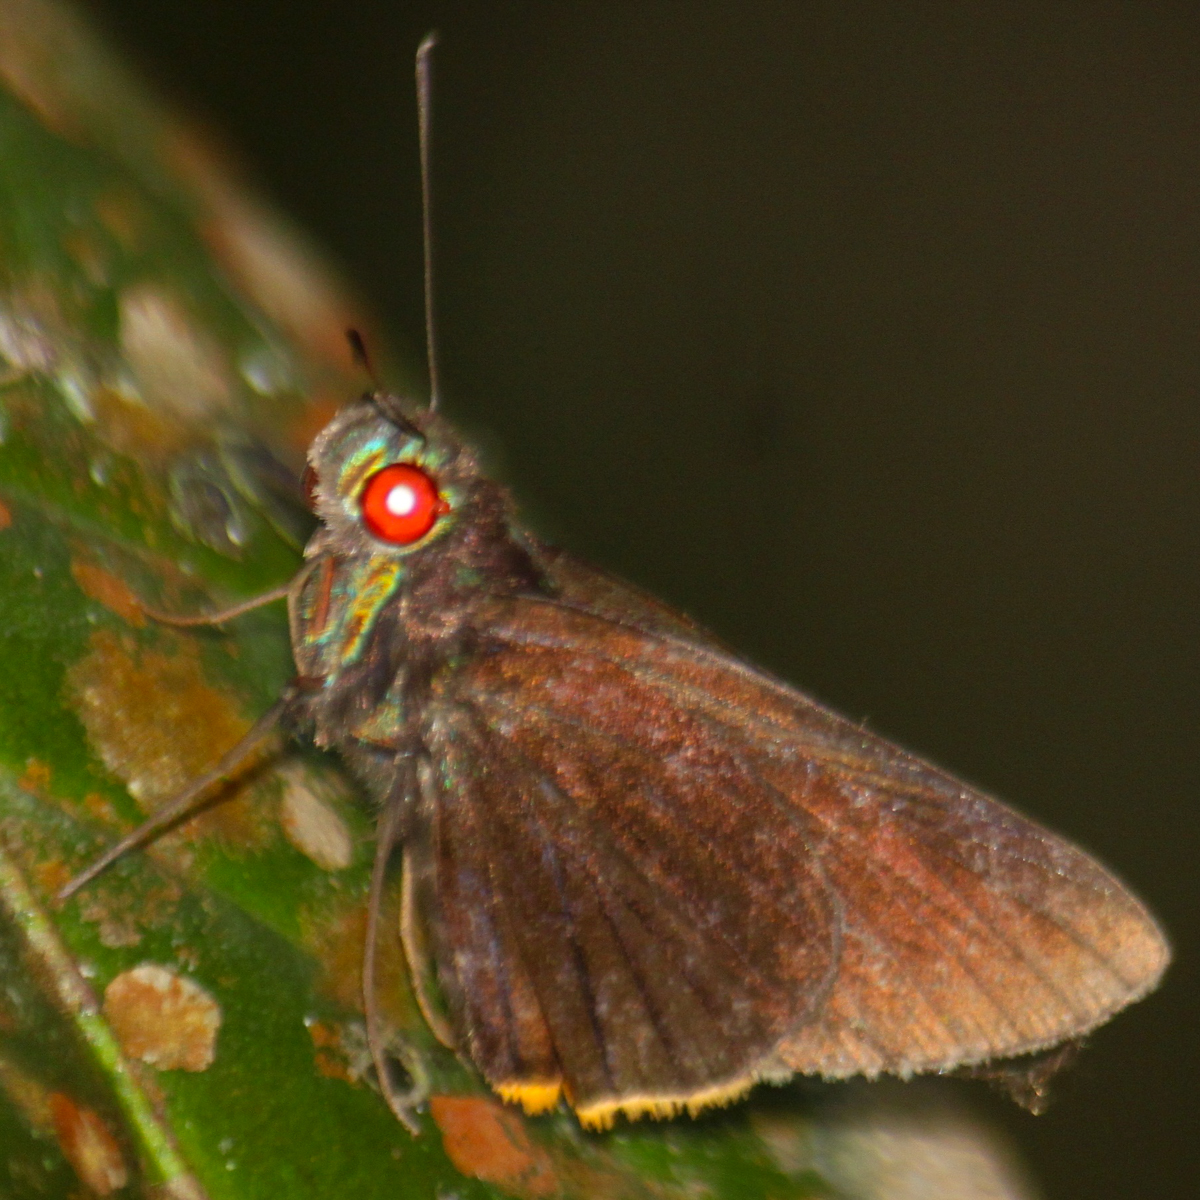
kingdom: Animalia
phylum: Arthropoda
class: Insecta
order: Lepidoptera
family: Hesperiidae
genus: Matapa
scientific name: Matapa sasivarna
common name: Black-veined redeye
